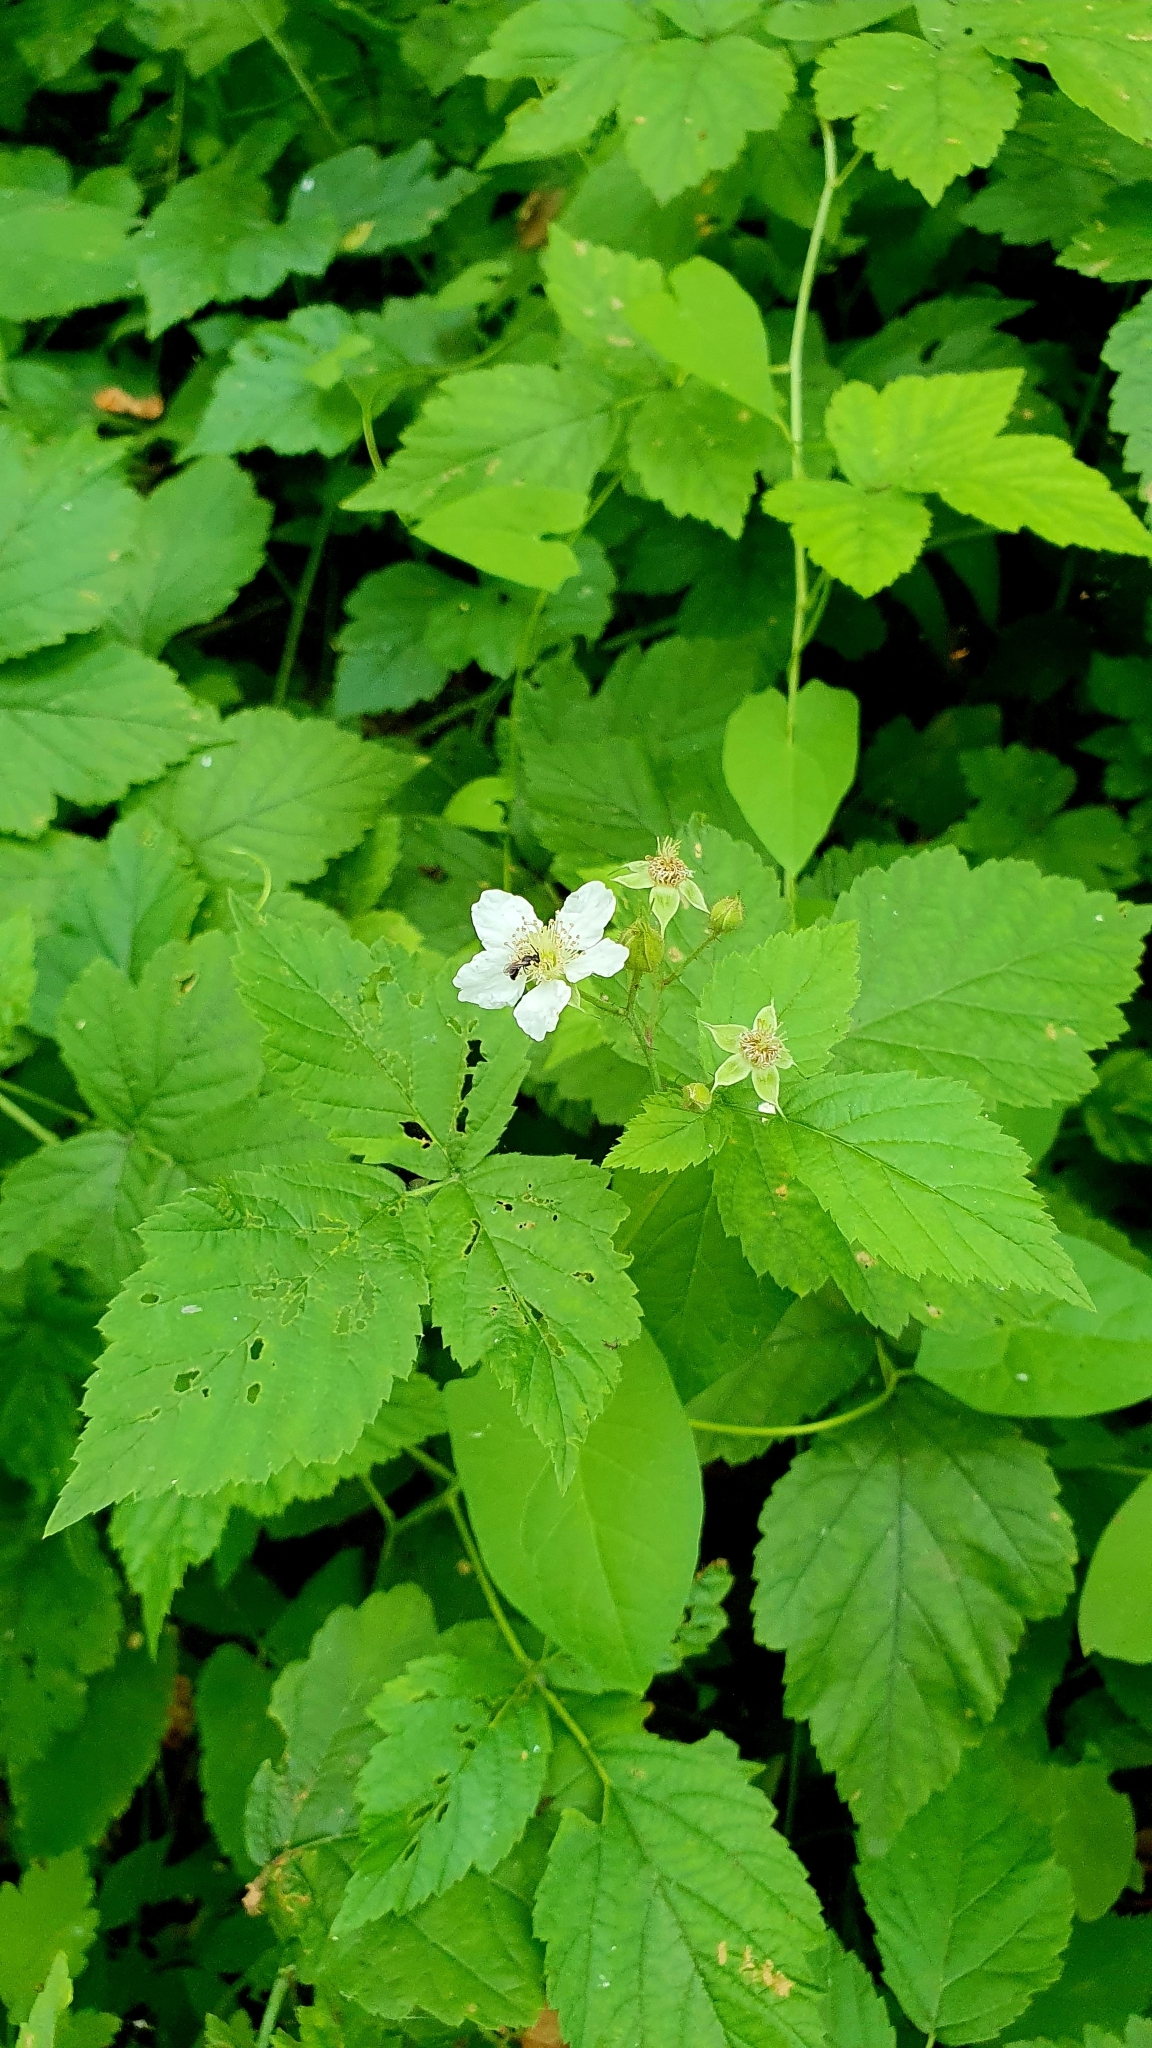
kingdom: Plantae
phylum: Tracheophyta
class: Magnoliopsida
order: Rosales
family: Rosaceae
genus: Rubus
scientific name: Rubus caesius
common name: Dewberry
